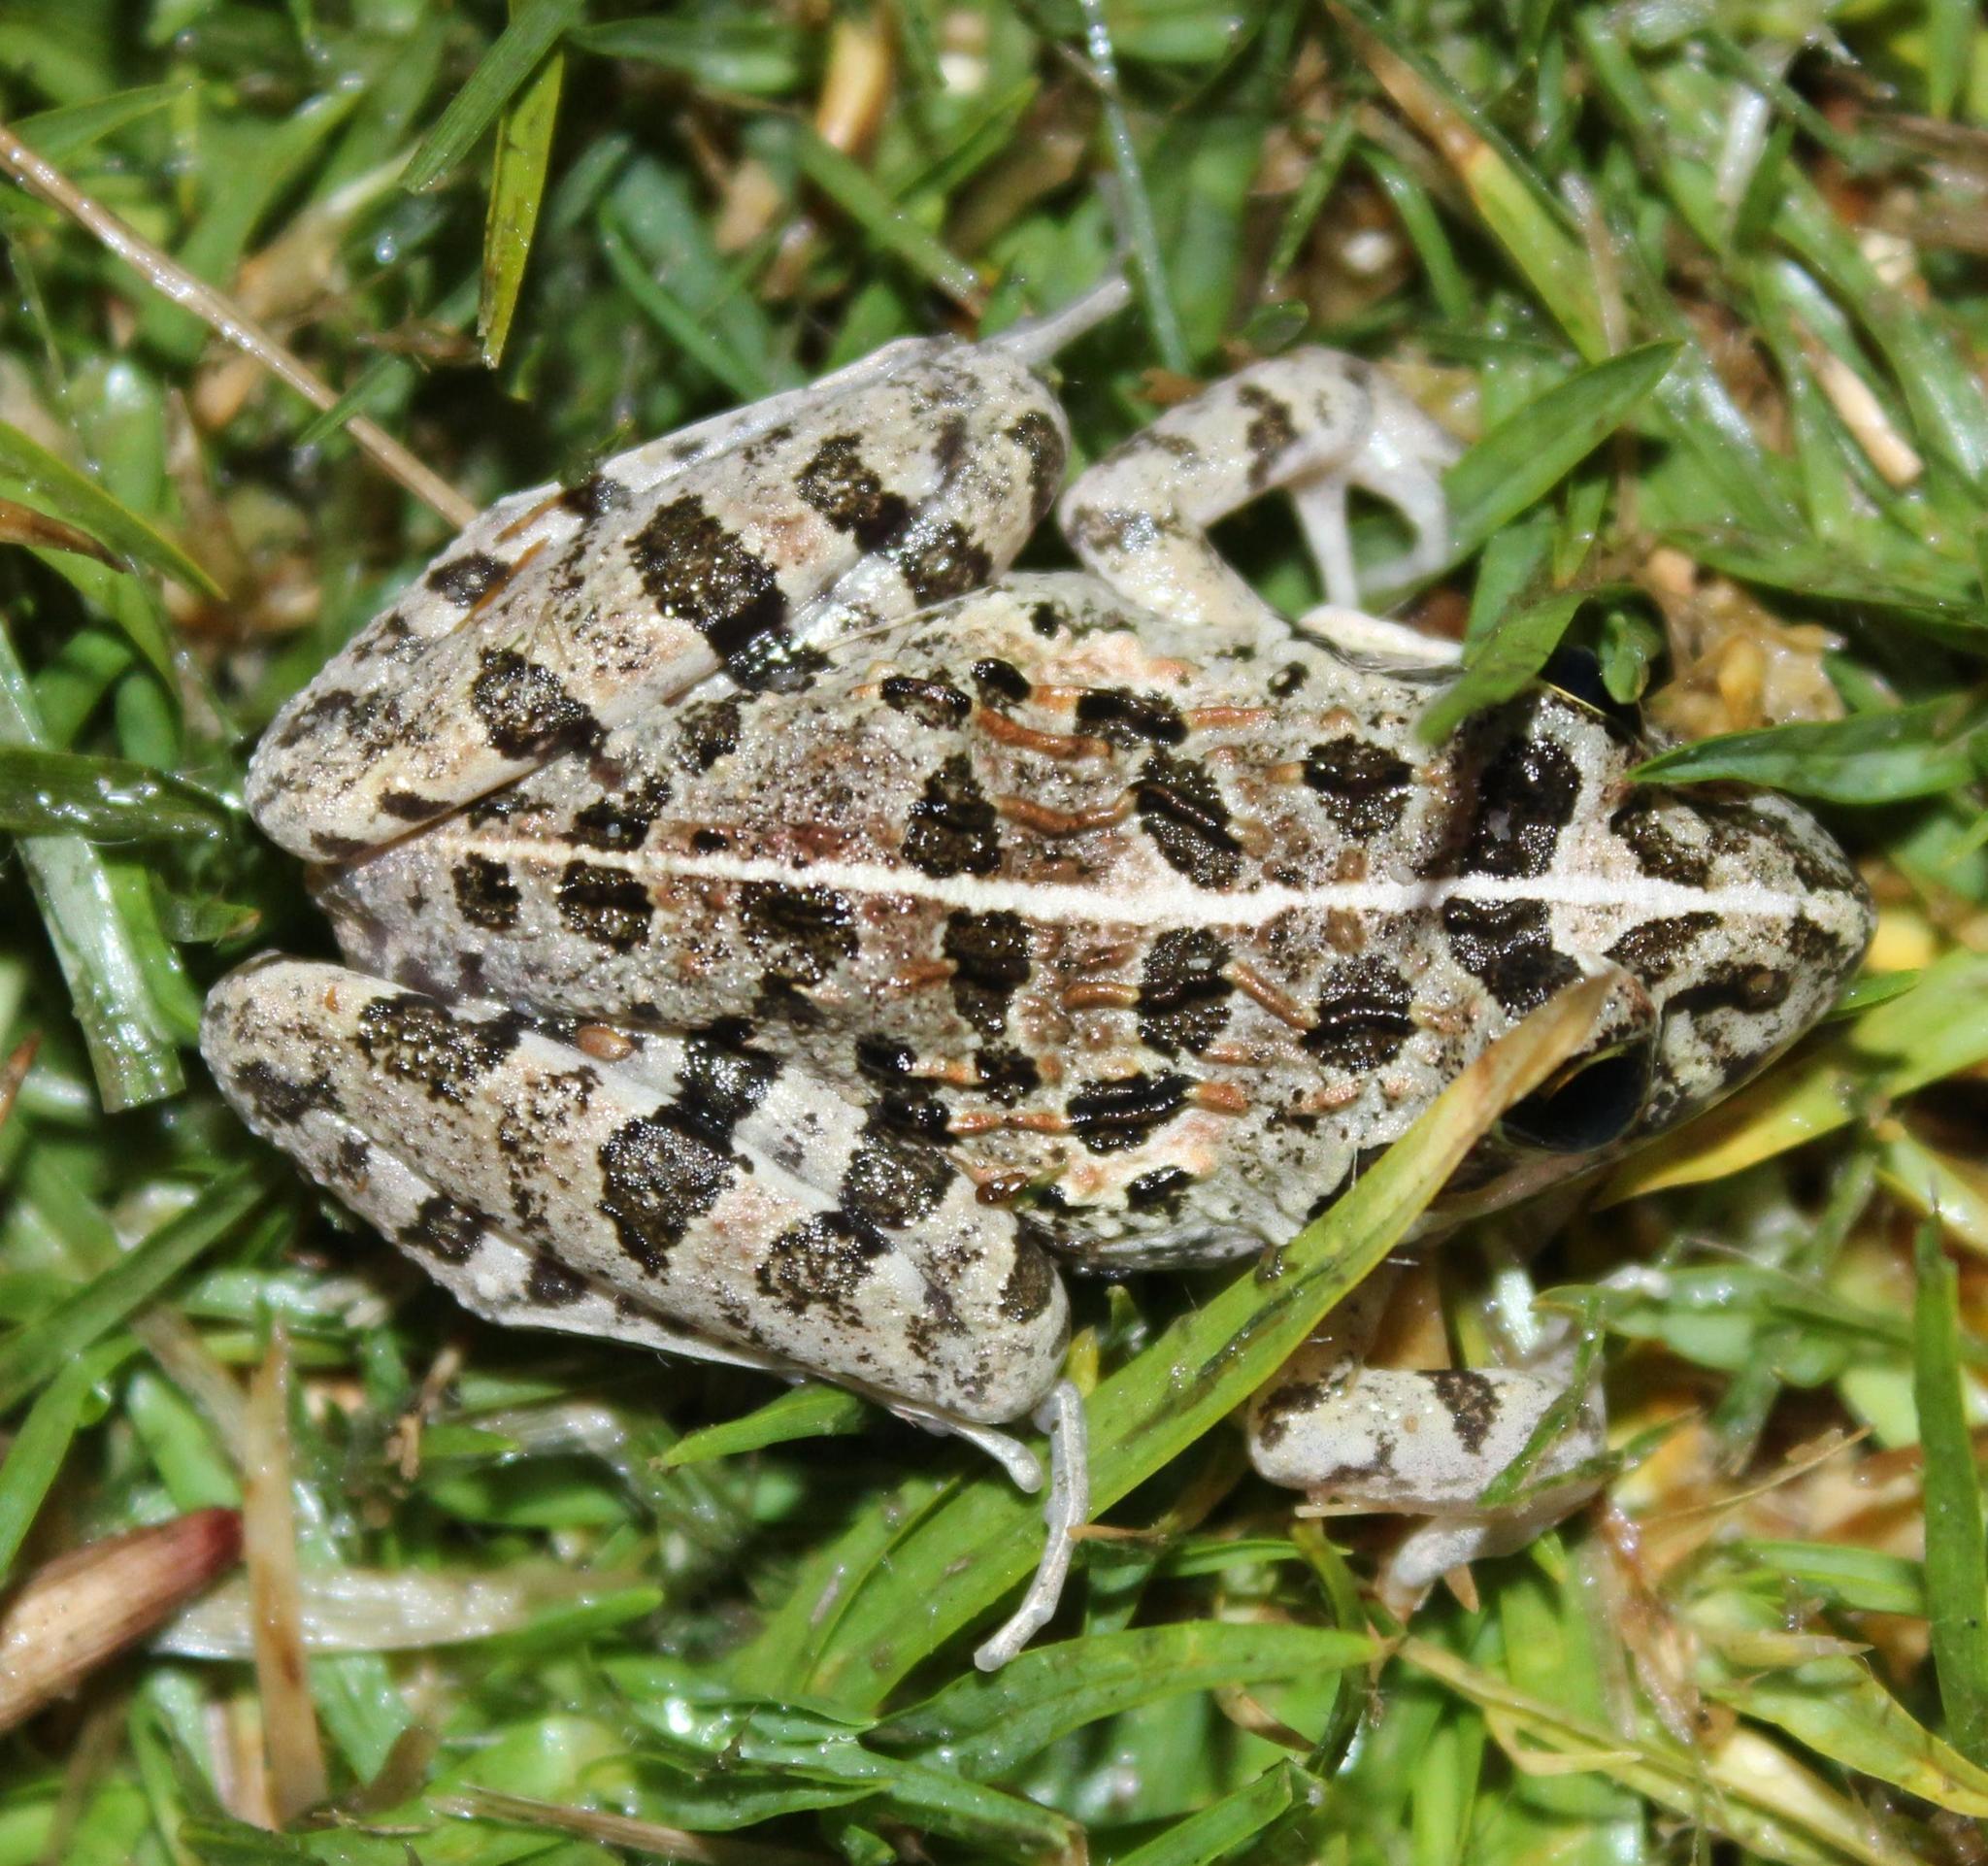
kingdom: Animalia
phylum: Chordata
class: Amphibia
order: Anura
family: Pyxicephalidae
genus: Strongylopus
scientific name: Strongylopus grayii
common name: Gray's stream frog
